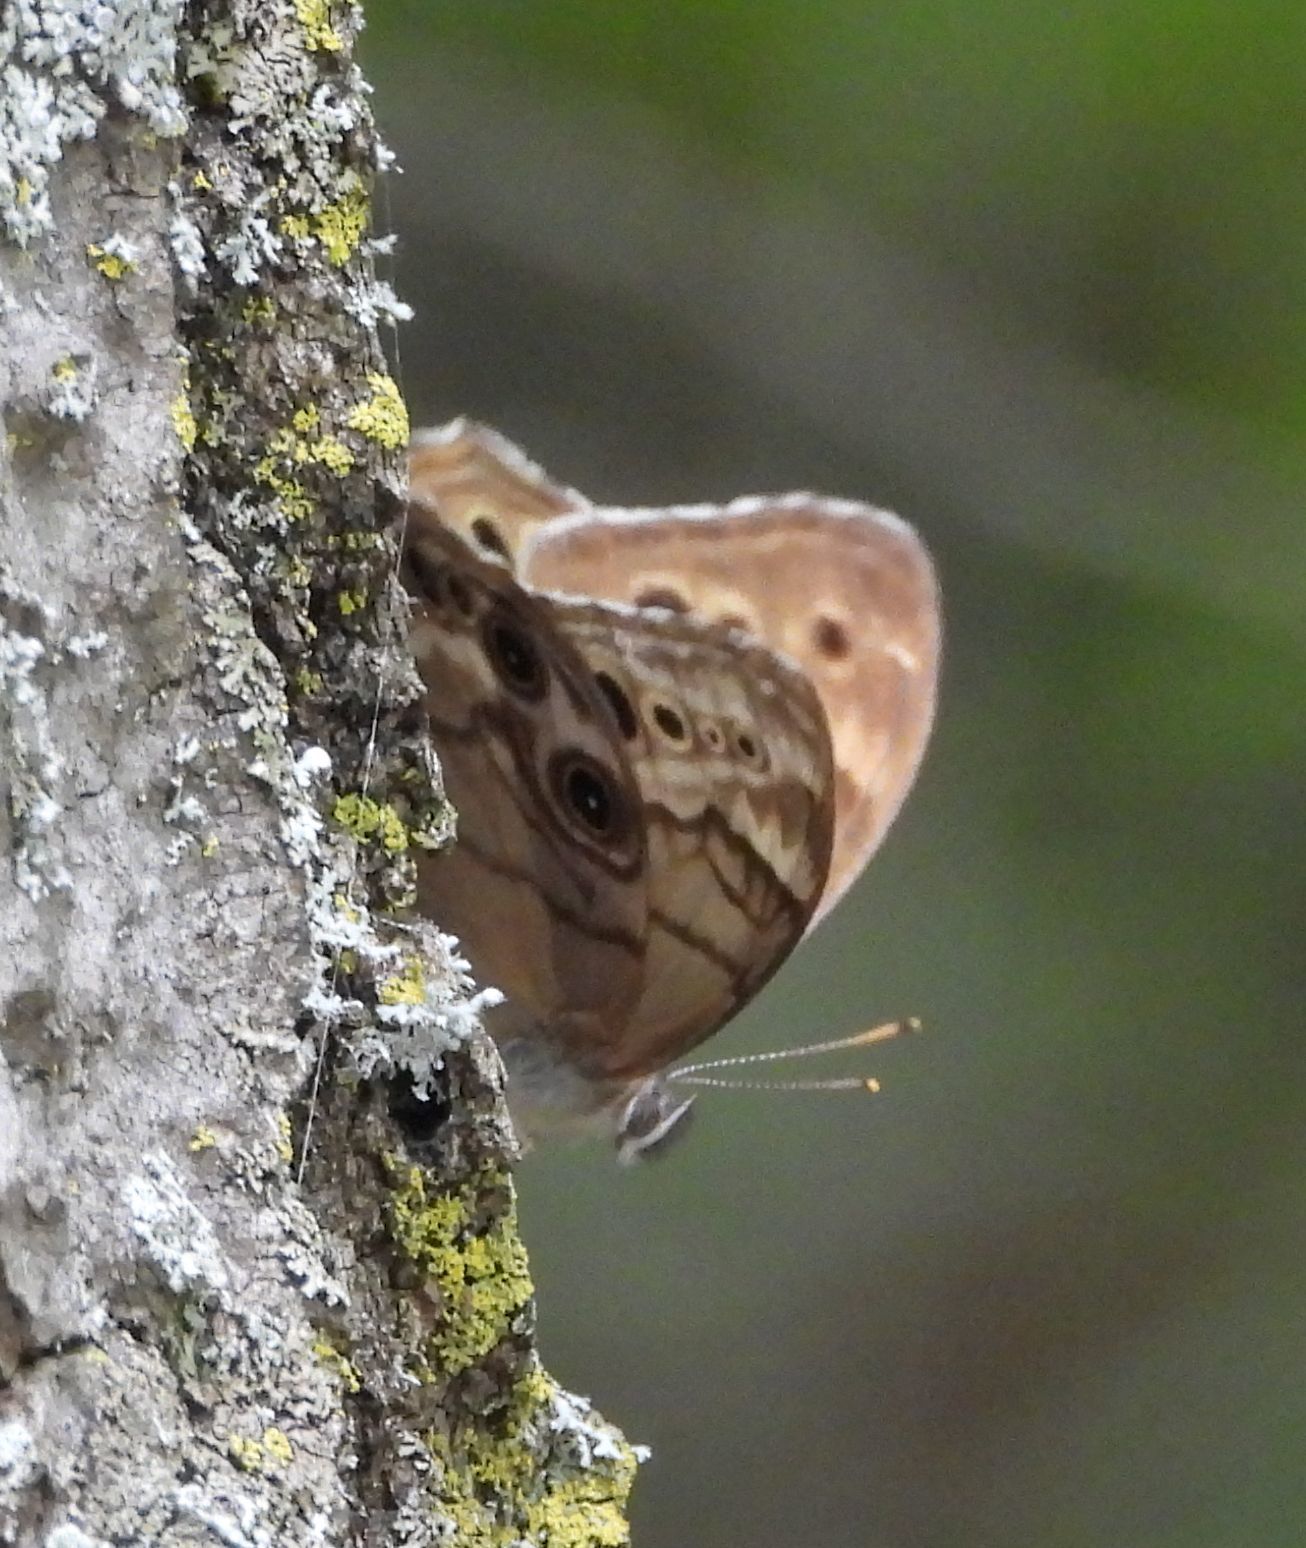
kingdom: Animalia
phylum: Arthropoda
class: Insecta
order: Lepidoptera
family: Nymphalidae
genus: Lethe
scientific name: Lethe anthedon
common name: Northern pearly-eye
